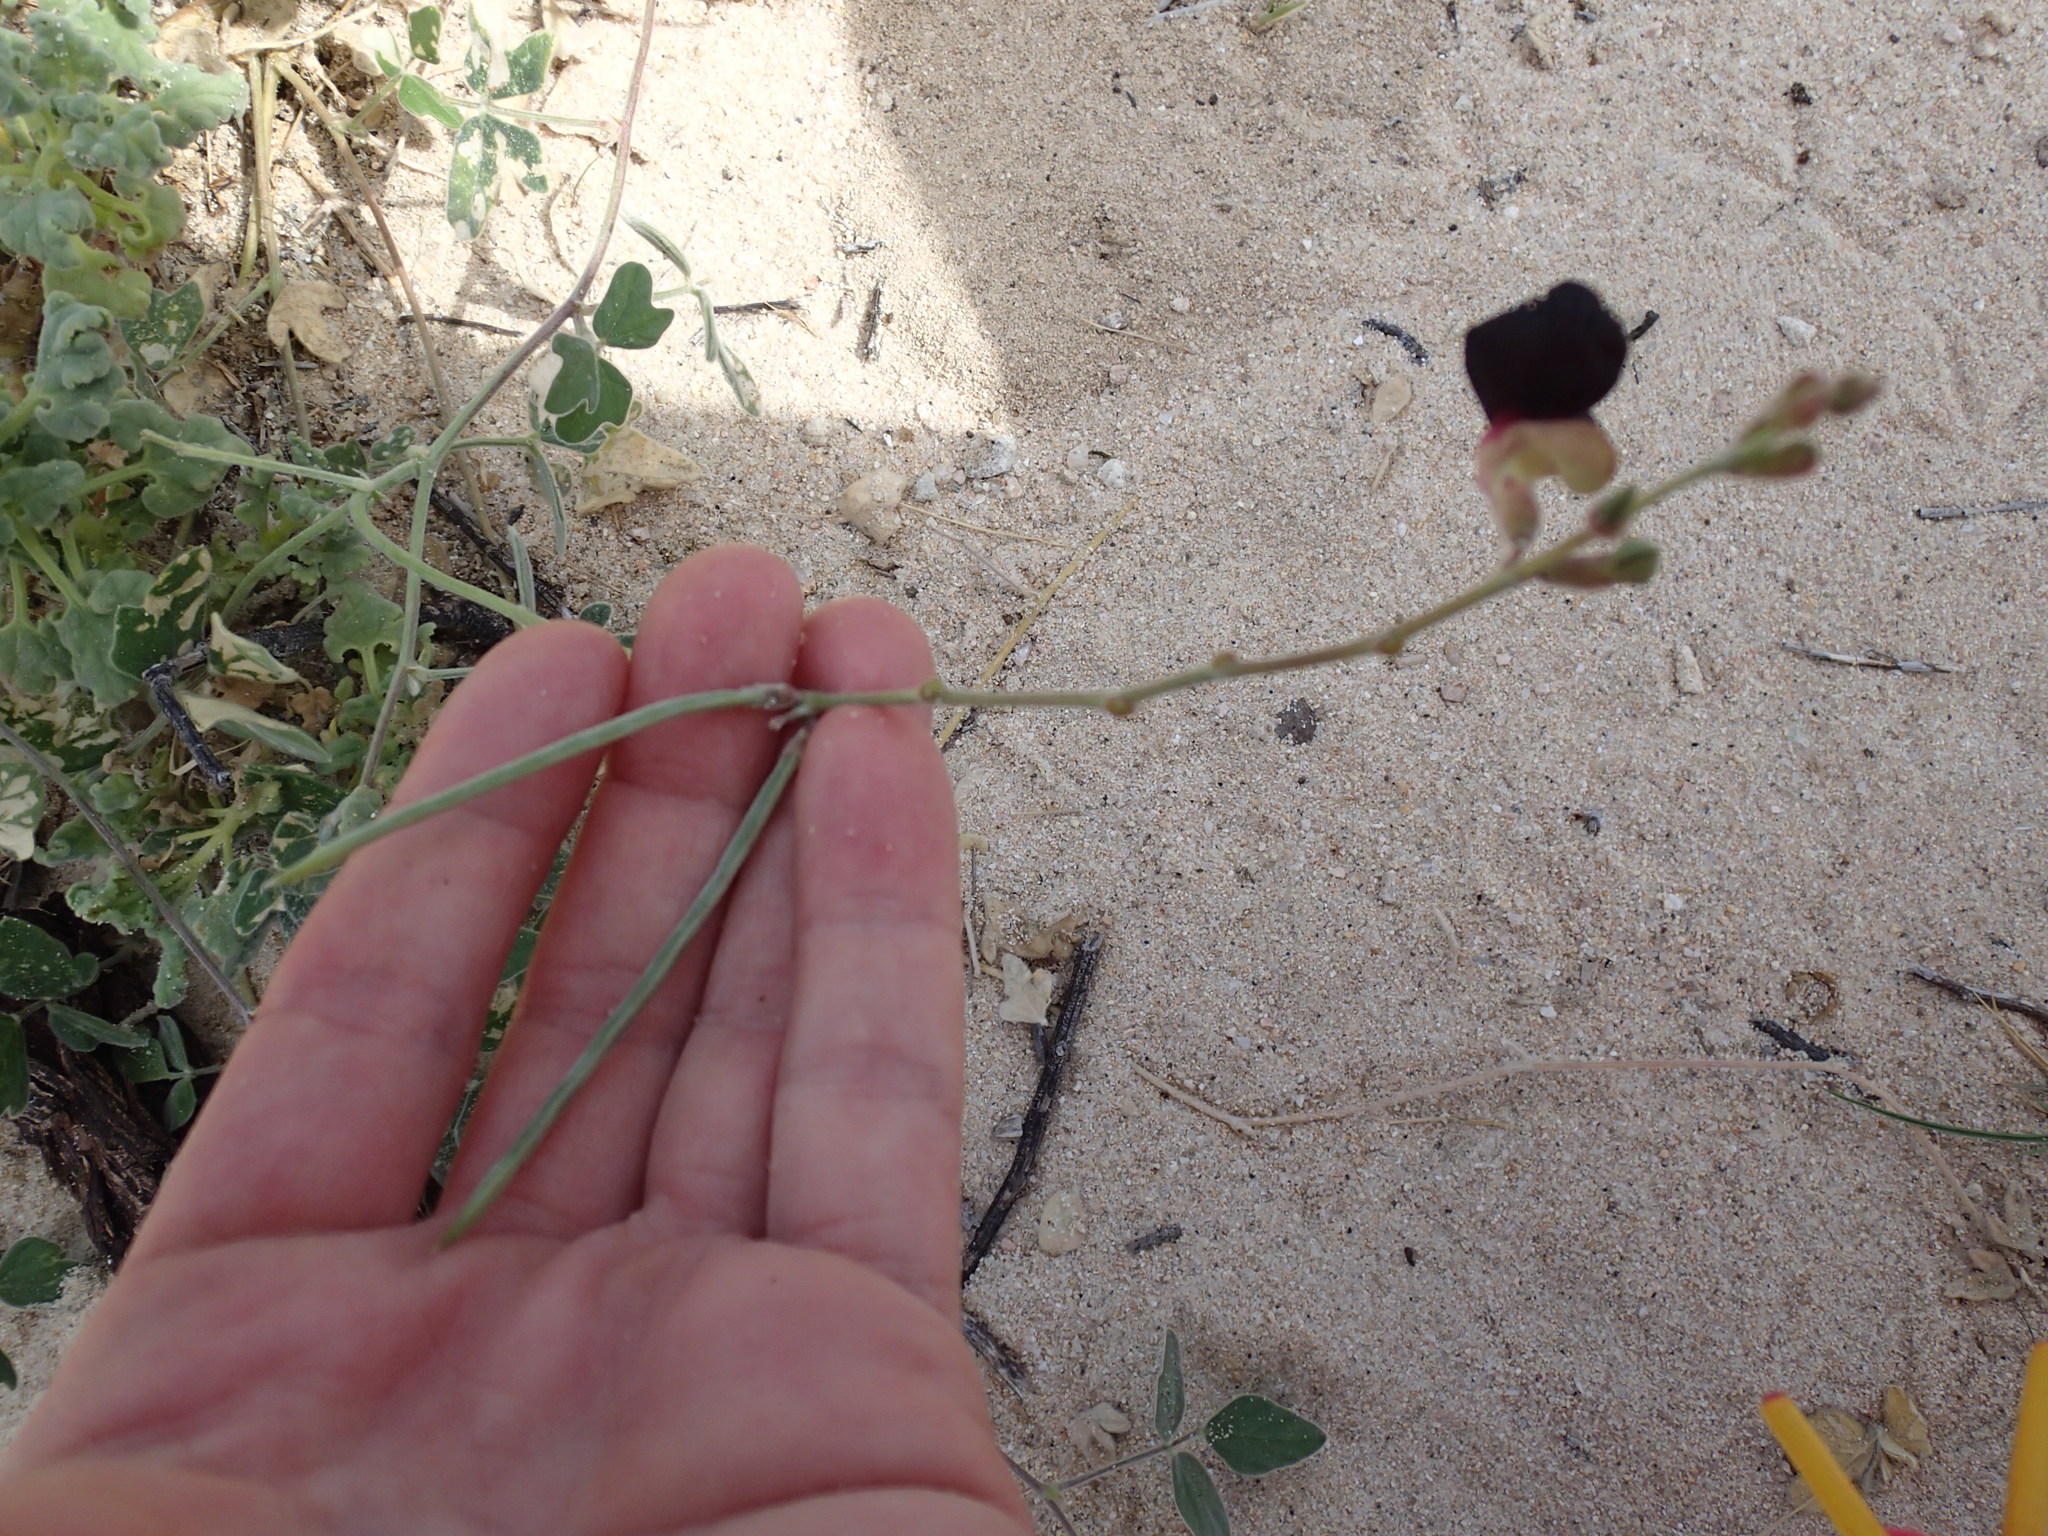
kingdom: Plantae
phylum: Tracheophyta
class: Magnoliopsida
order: Fabales
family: Fabaceae
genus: Macroptilium
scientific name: Macroptilium atropurpureum
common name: Purple bushbean
